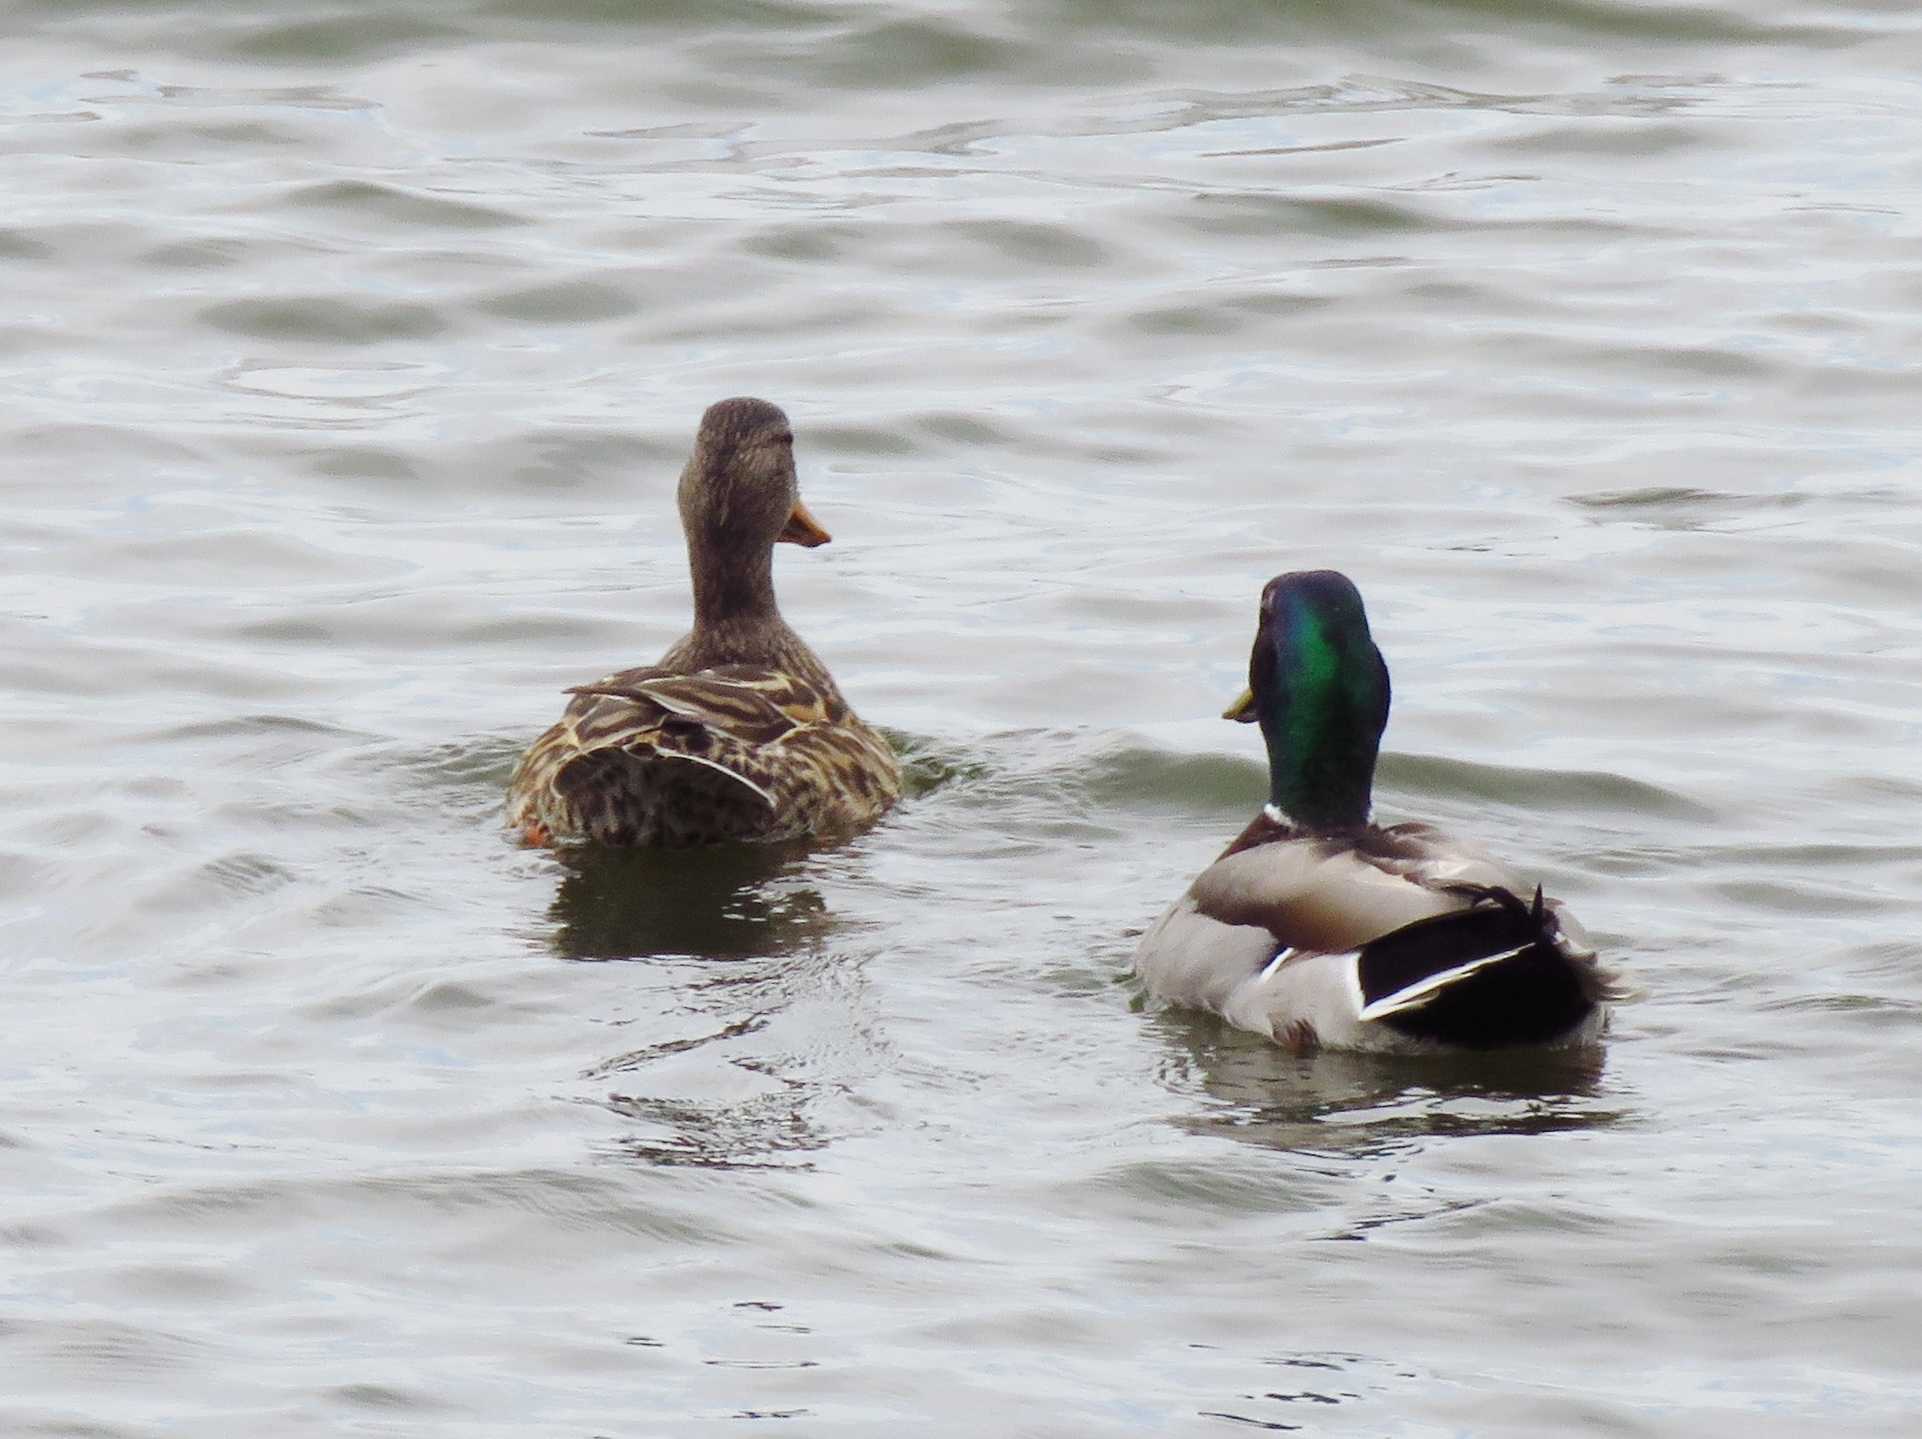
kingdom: Animalia
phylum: Chordata
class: Aves
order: Anseriformes
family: Anatidae
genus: Anas
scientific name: Anas platyrhynchos
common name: Mallard
